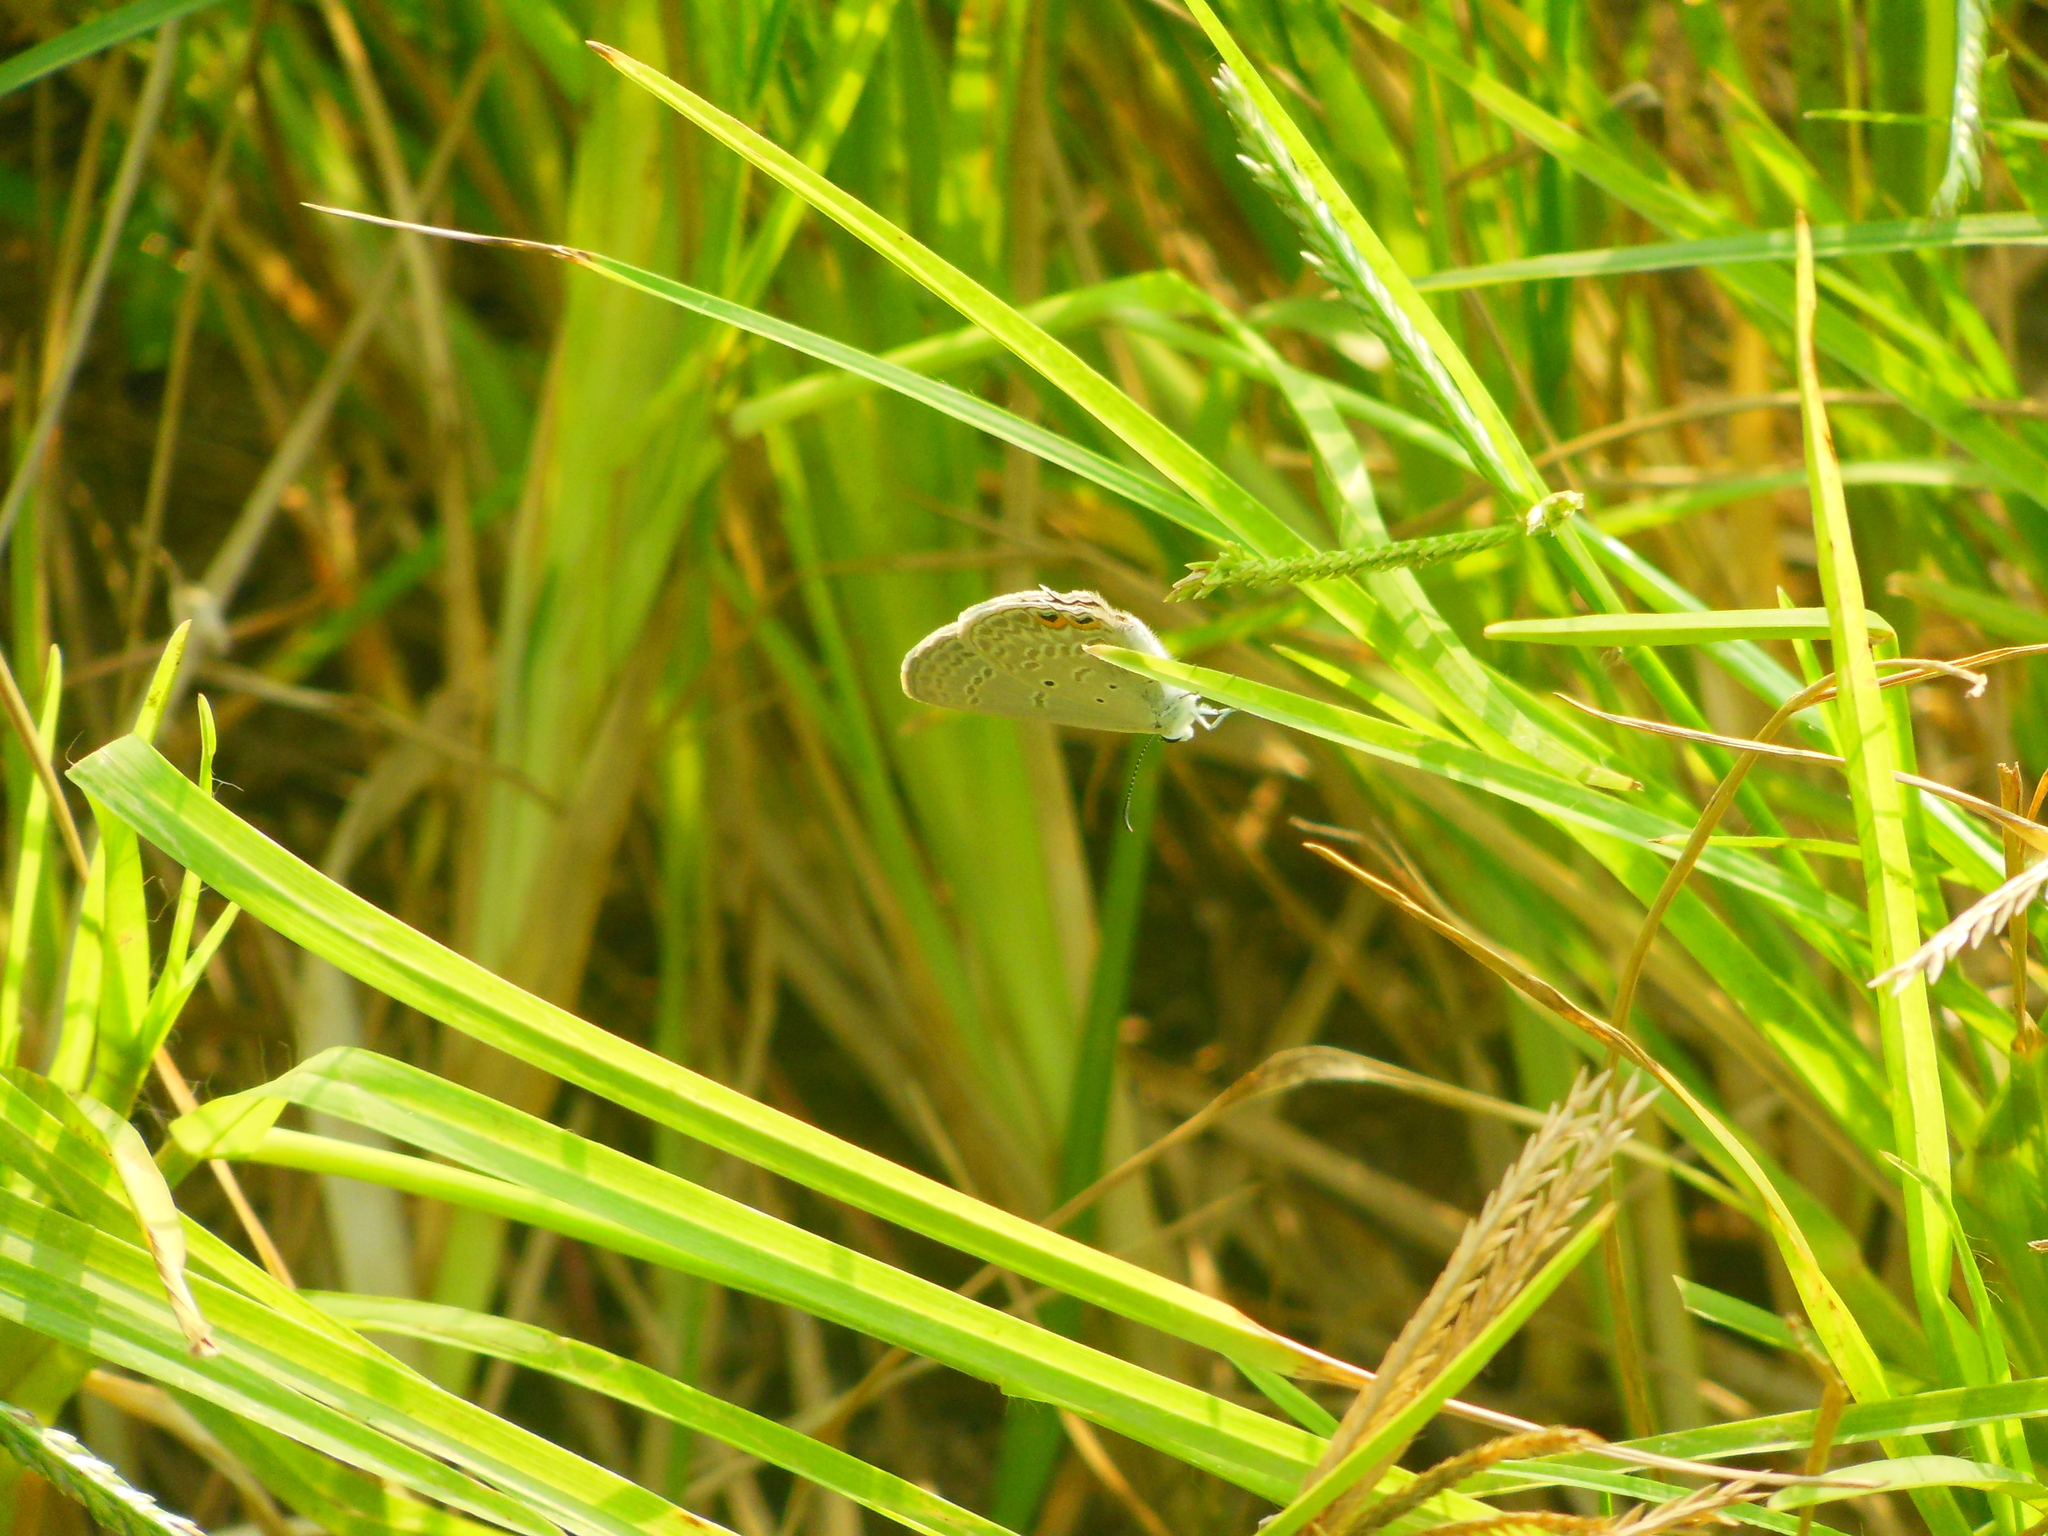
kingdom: Animalia
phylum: Arthropoda
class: Insecta
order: Lepidoptera
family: Lycaenidae
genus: Euchrysops
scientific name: Euchrysops cnejus
